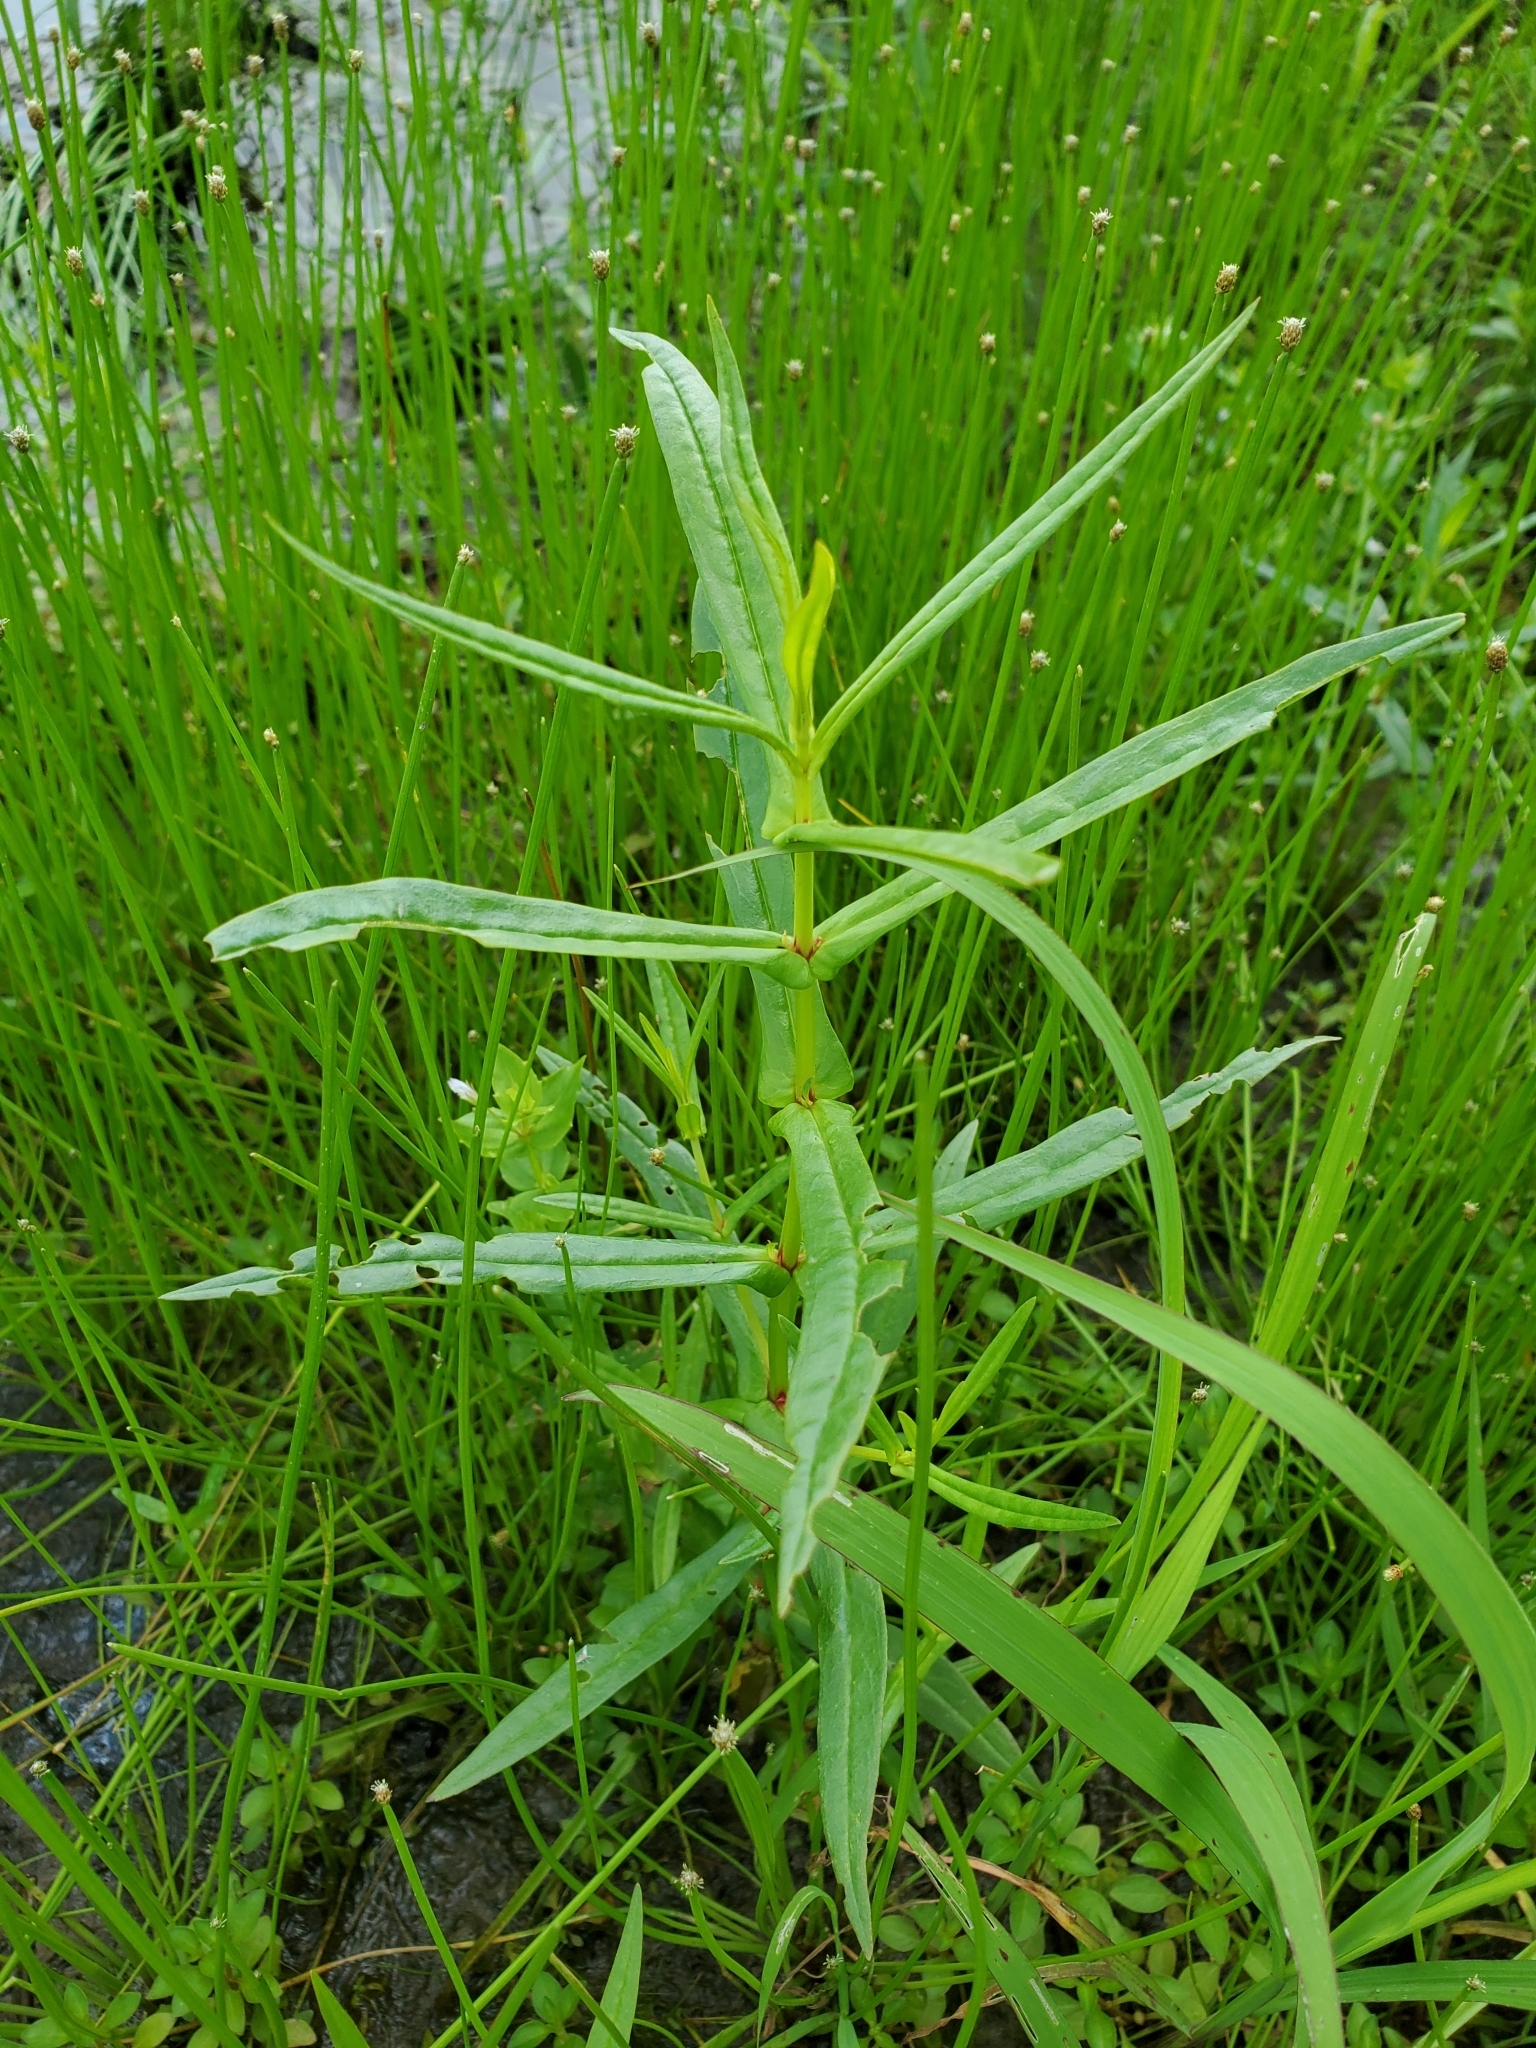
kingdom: Plantae
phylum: Tracheophyta
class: Magnoliopsida
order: Myrtales
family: Lythraceae
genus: Ammannia
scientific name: Ammannia coccinea
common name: Valley redstem
